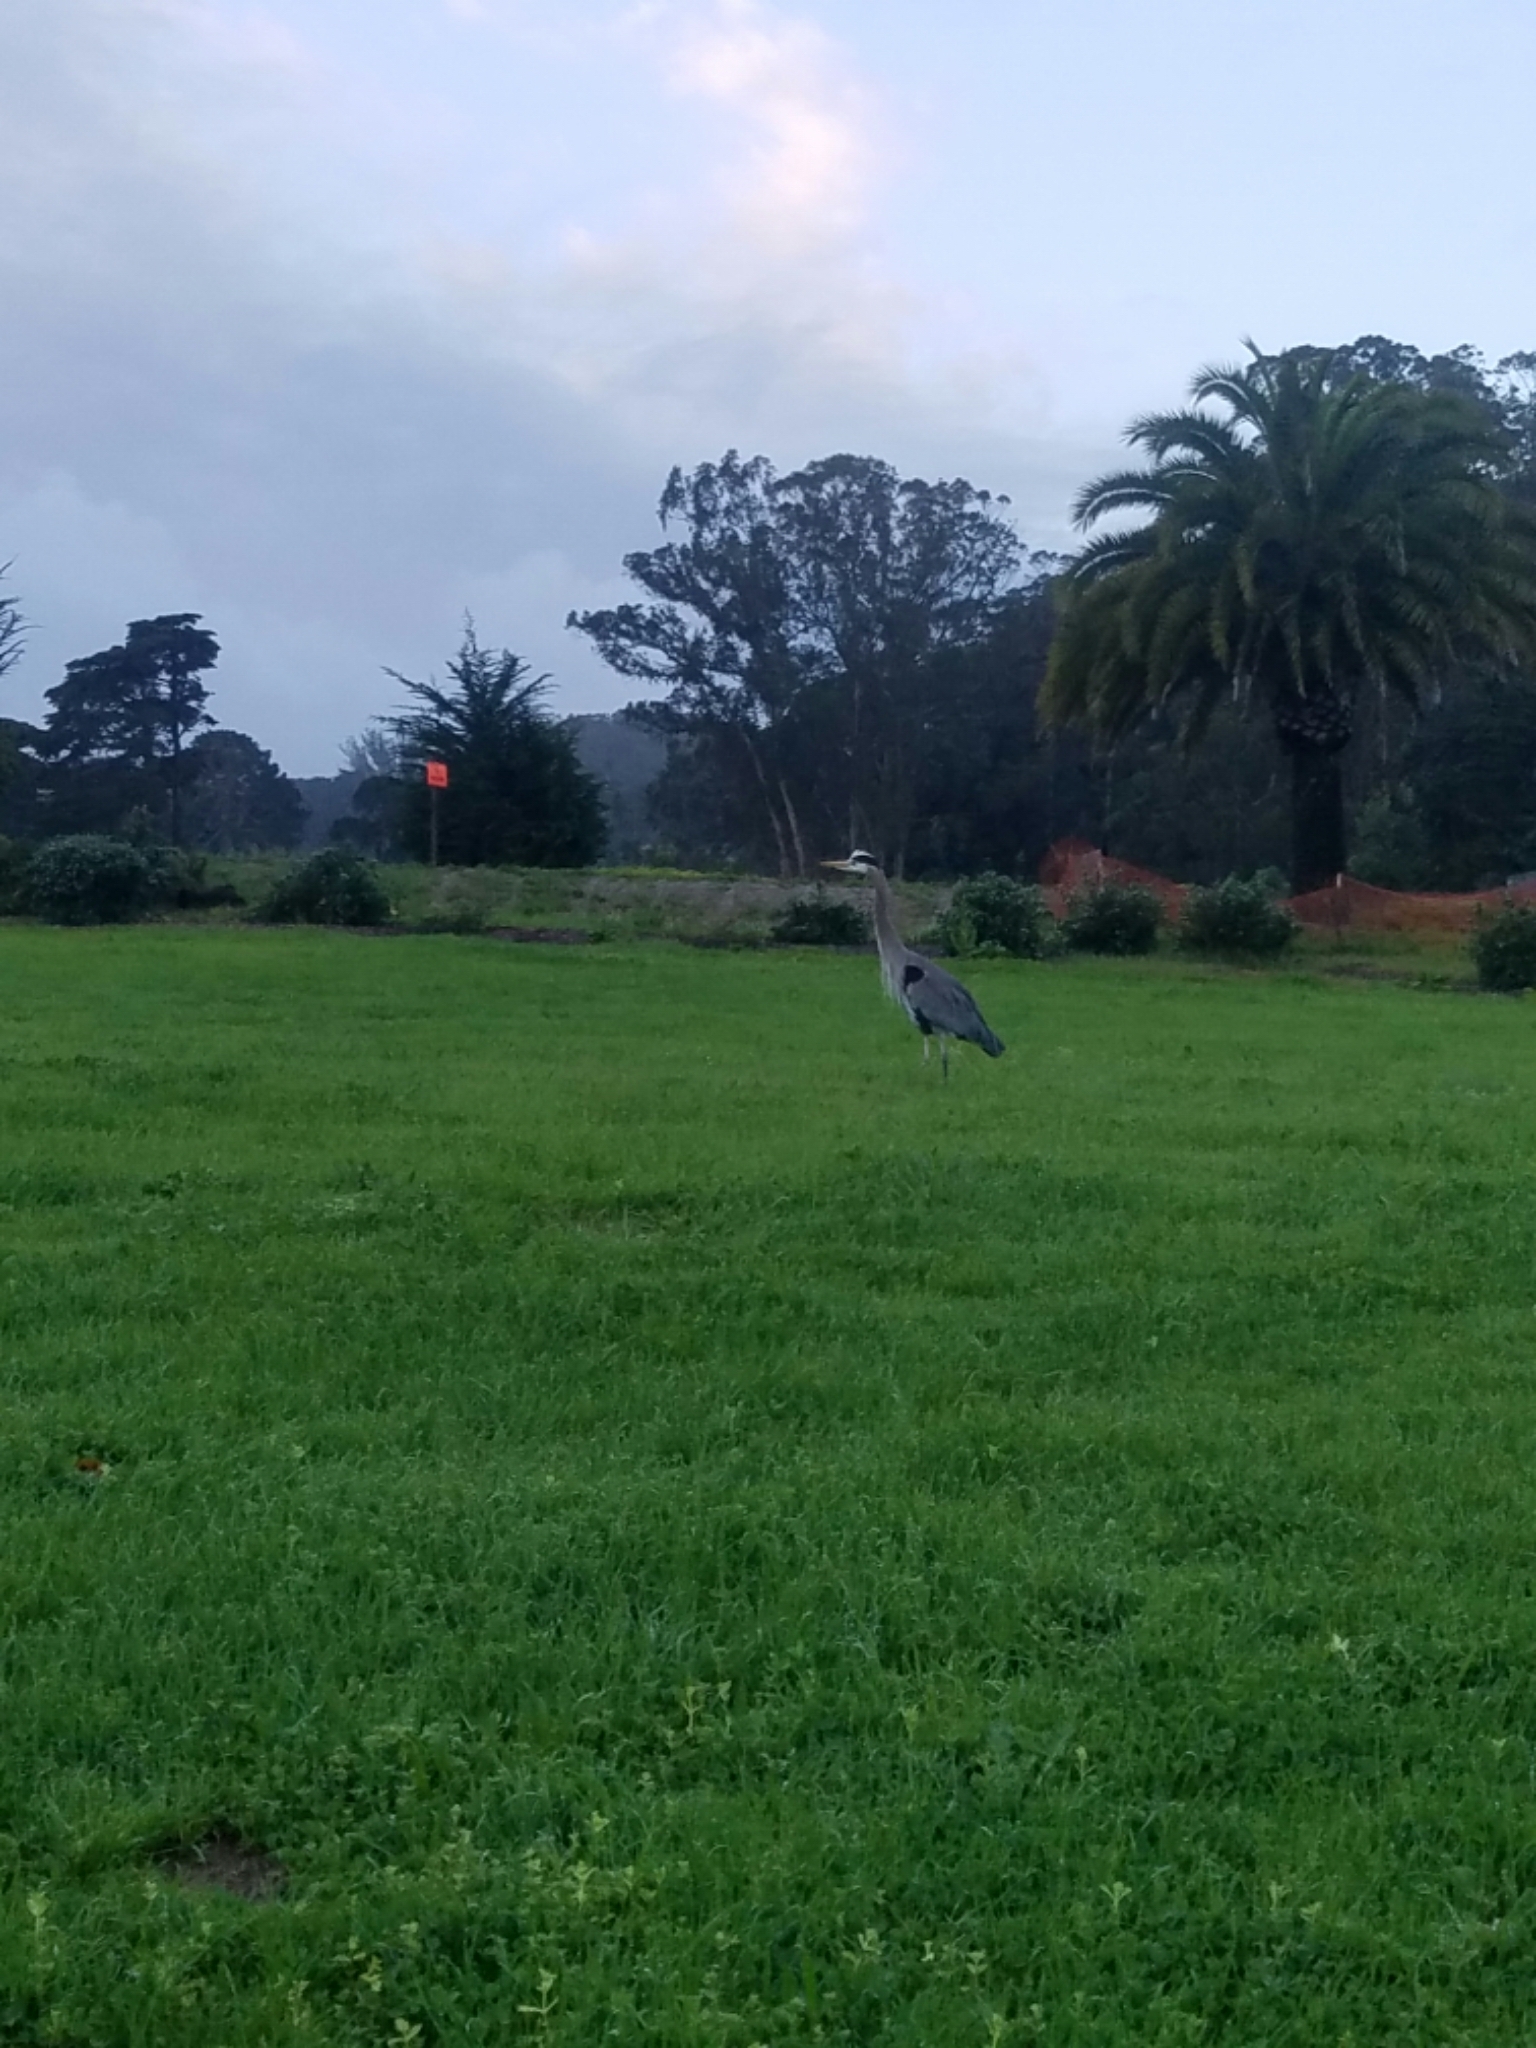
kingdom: Animalia
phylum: Chordata
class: Aves
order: Pelecaniformes
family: Ardeidae
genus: Ardea
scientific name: Ardea herodias
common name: Great blue heron
